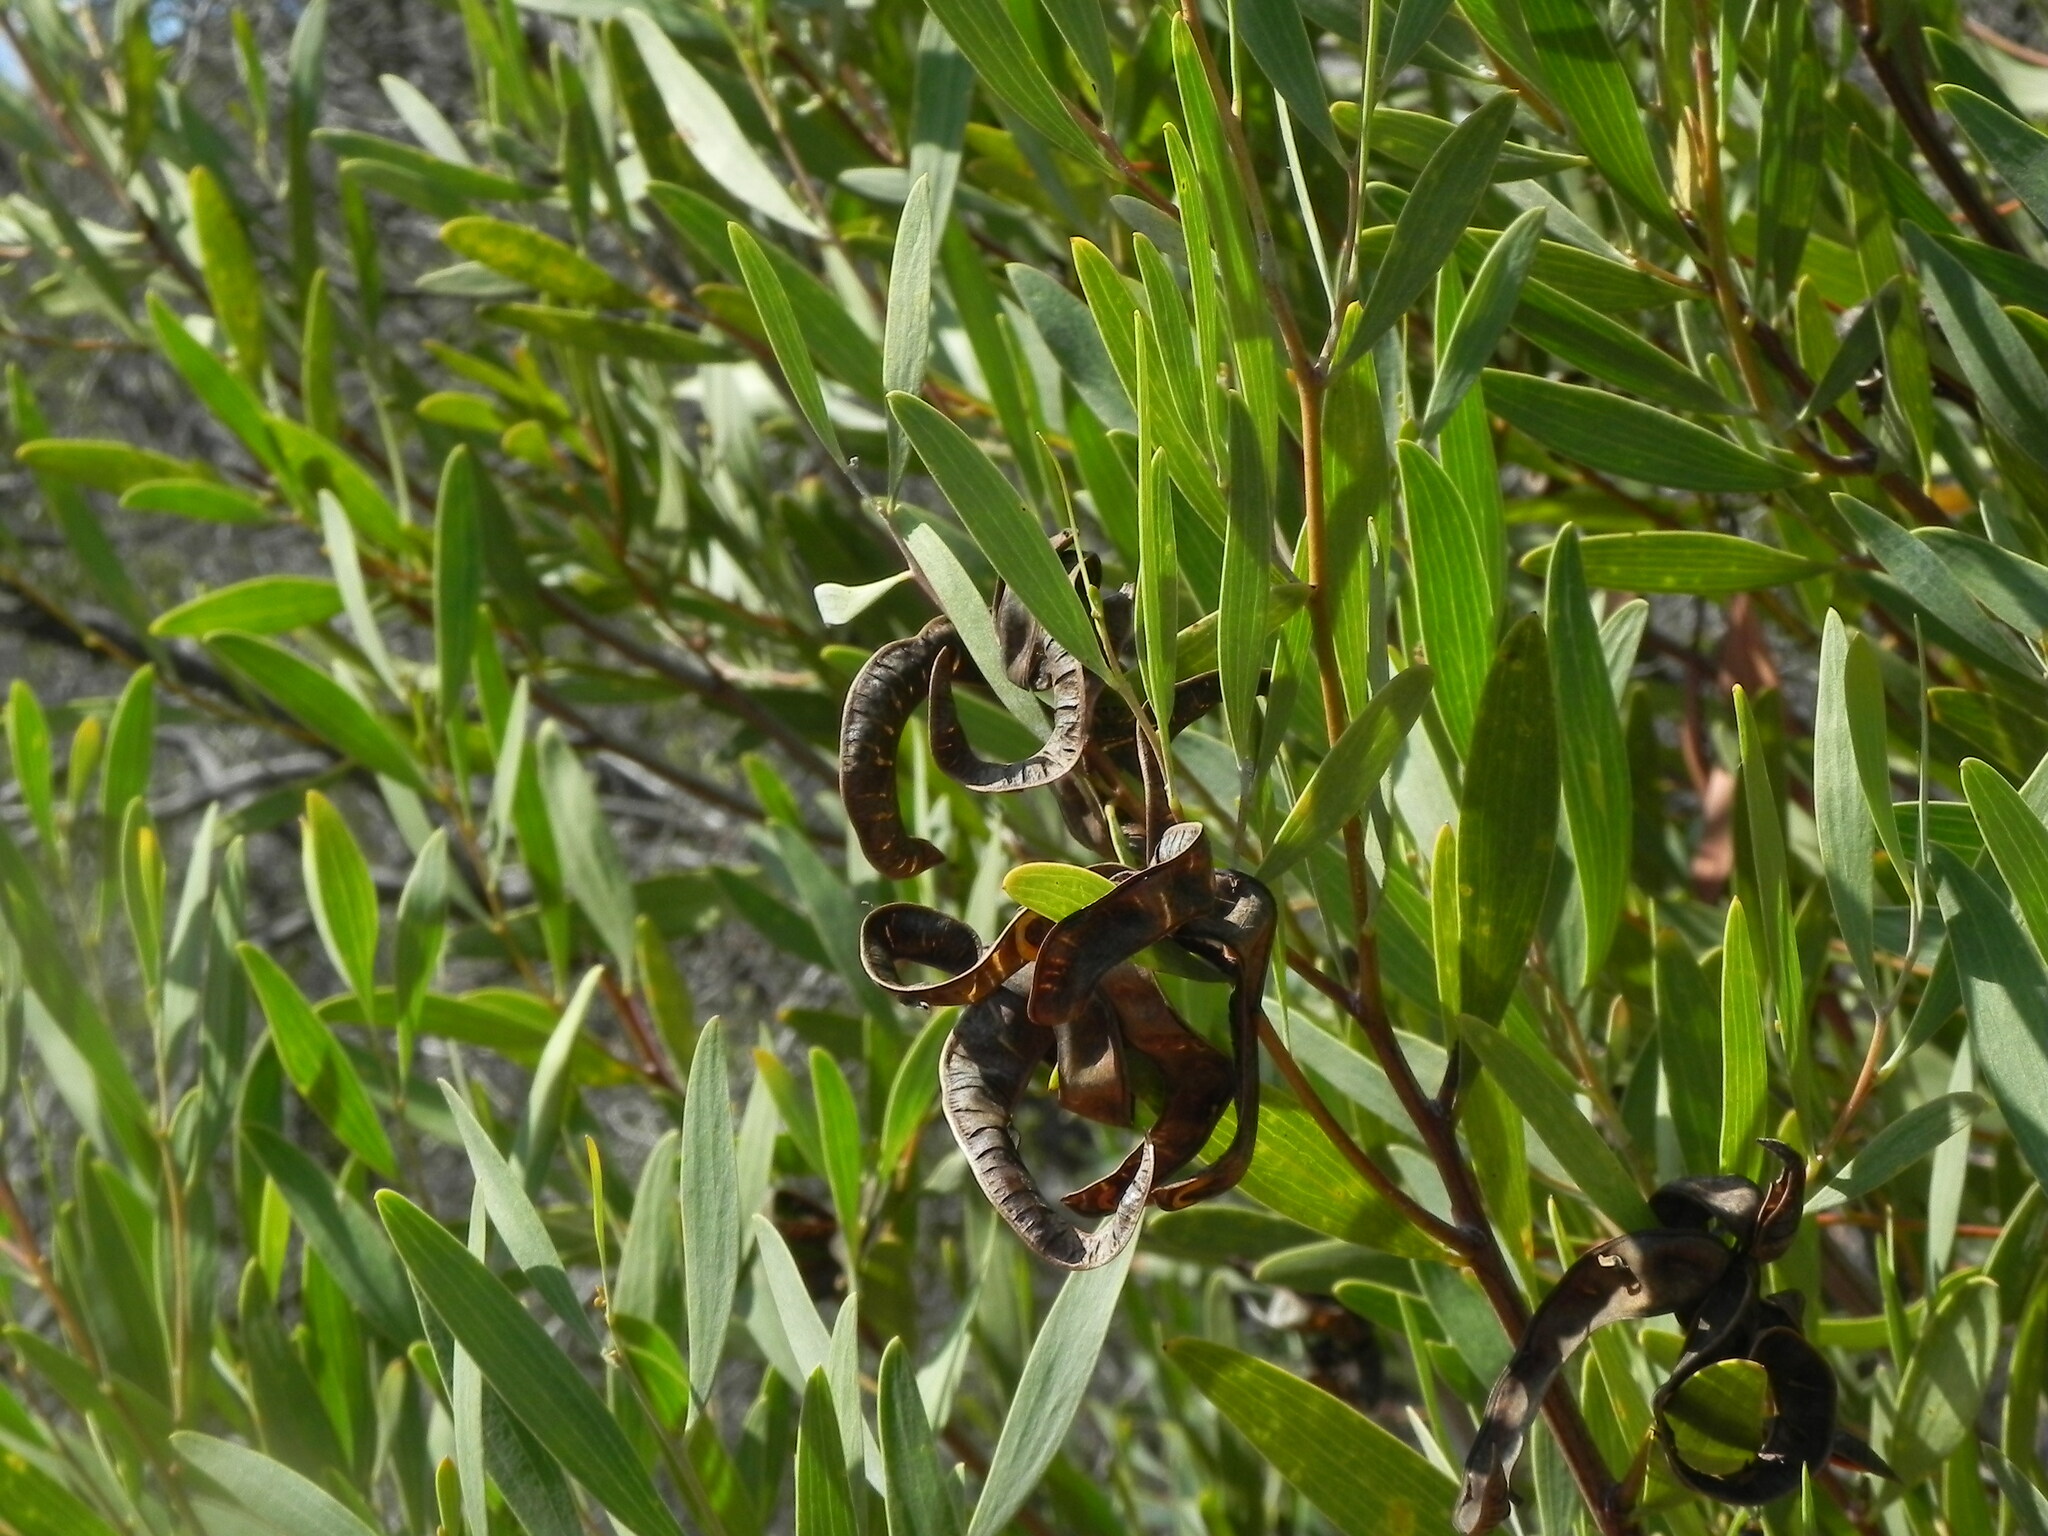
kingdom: Plantae
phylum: Tracheophyta
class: Magnoliopsida
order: Fabales
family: Fabaceae
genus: Acacia
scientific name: Acacia cyclops
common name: Coastal wattle
